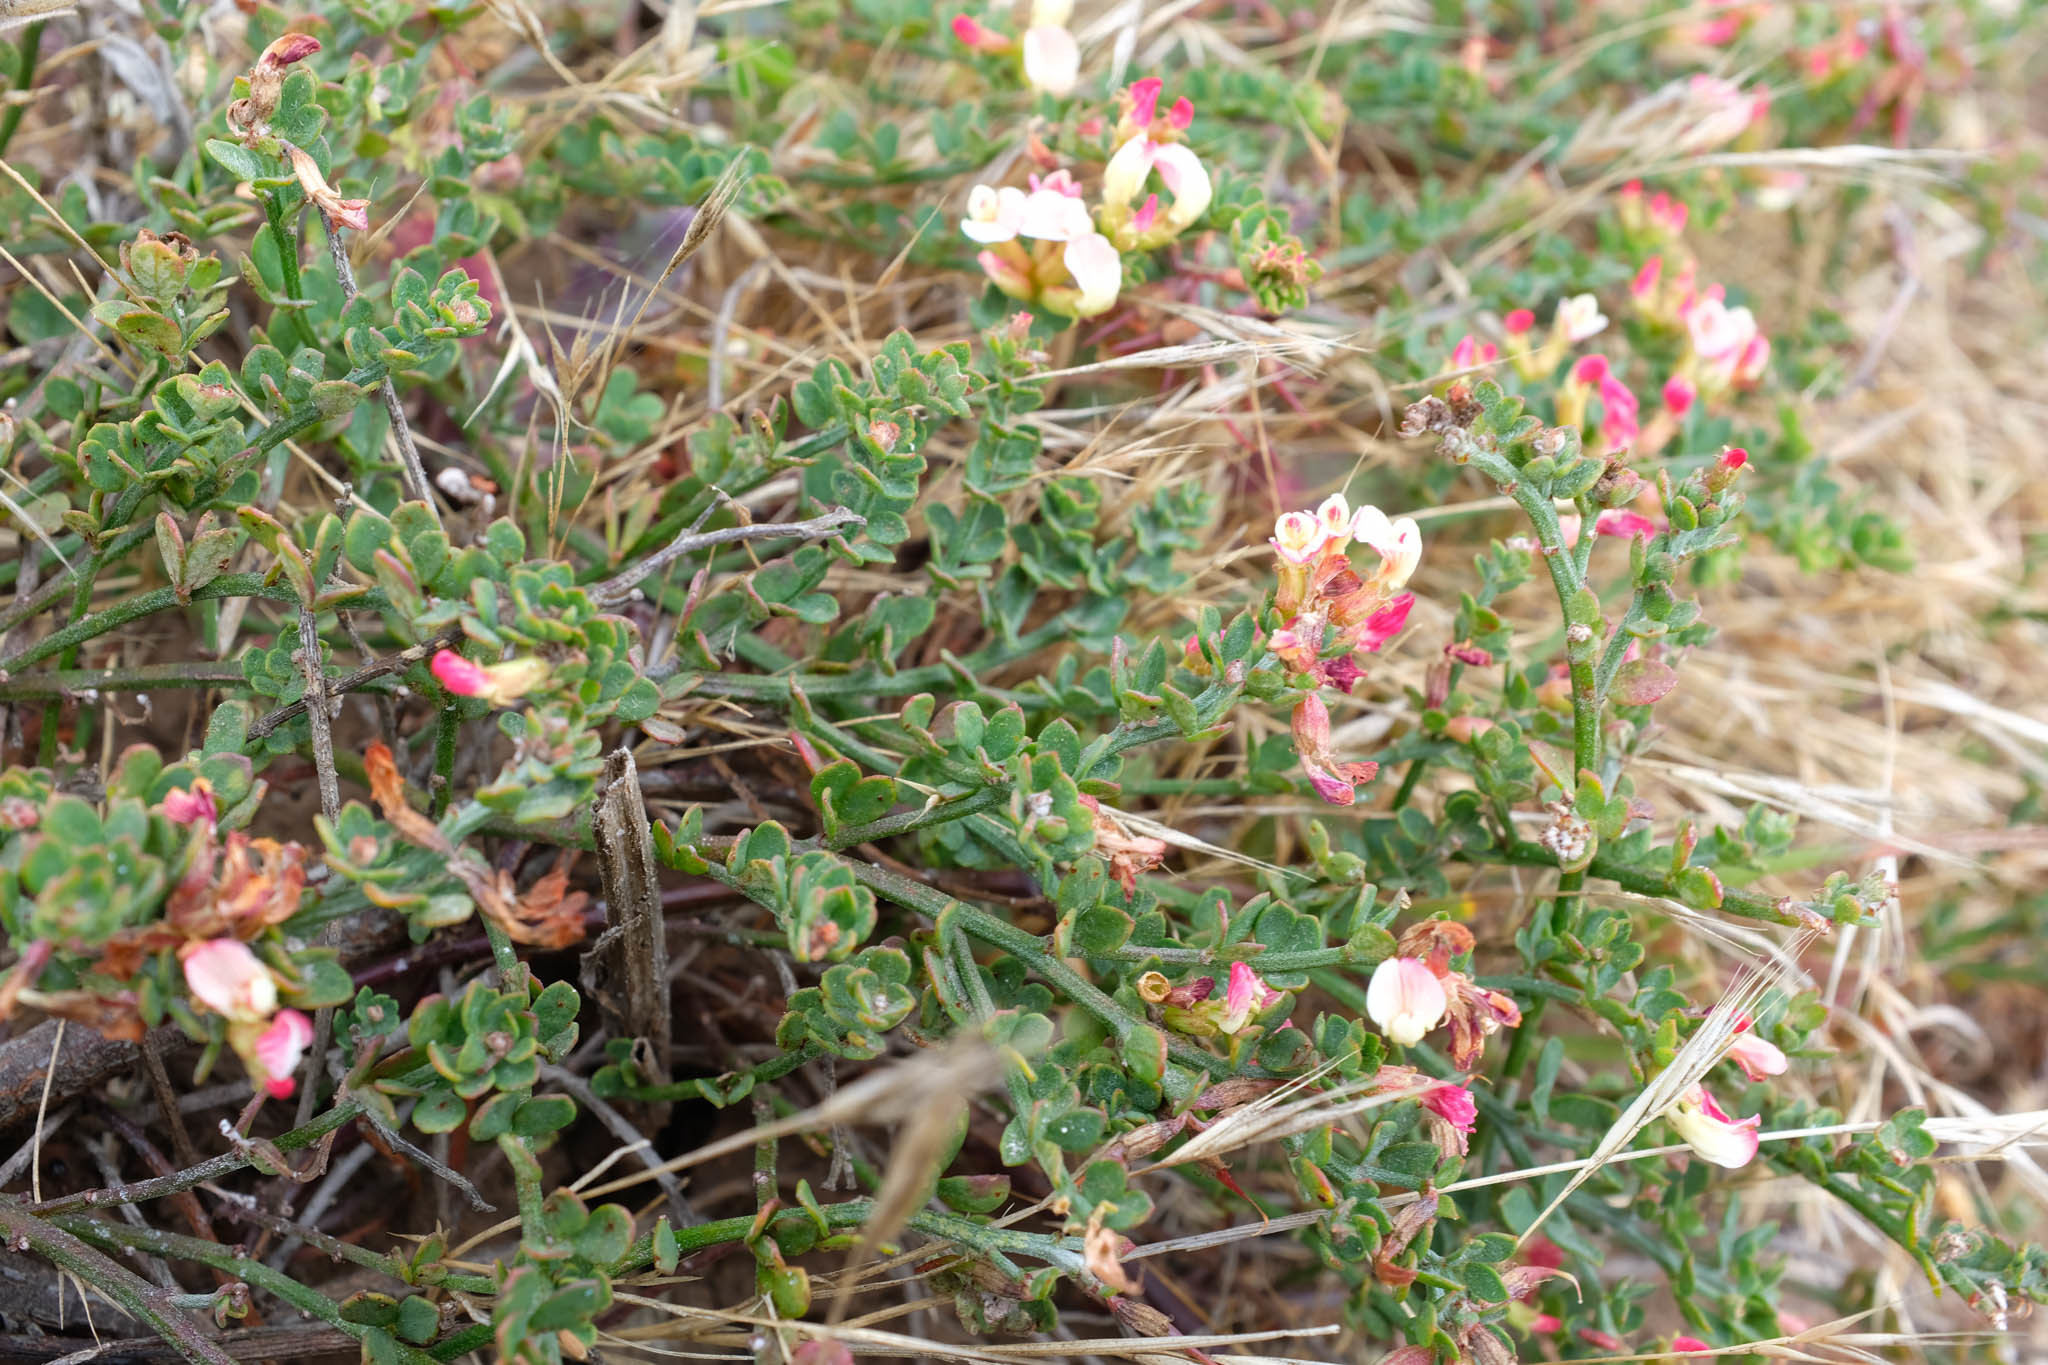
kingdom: Plantae
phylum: Tracheophyta
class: Magnoliopsida
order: Fabales
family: Fabaceae
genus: Acmispon
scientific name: Acmispon cytisoides
